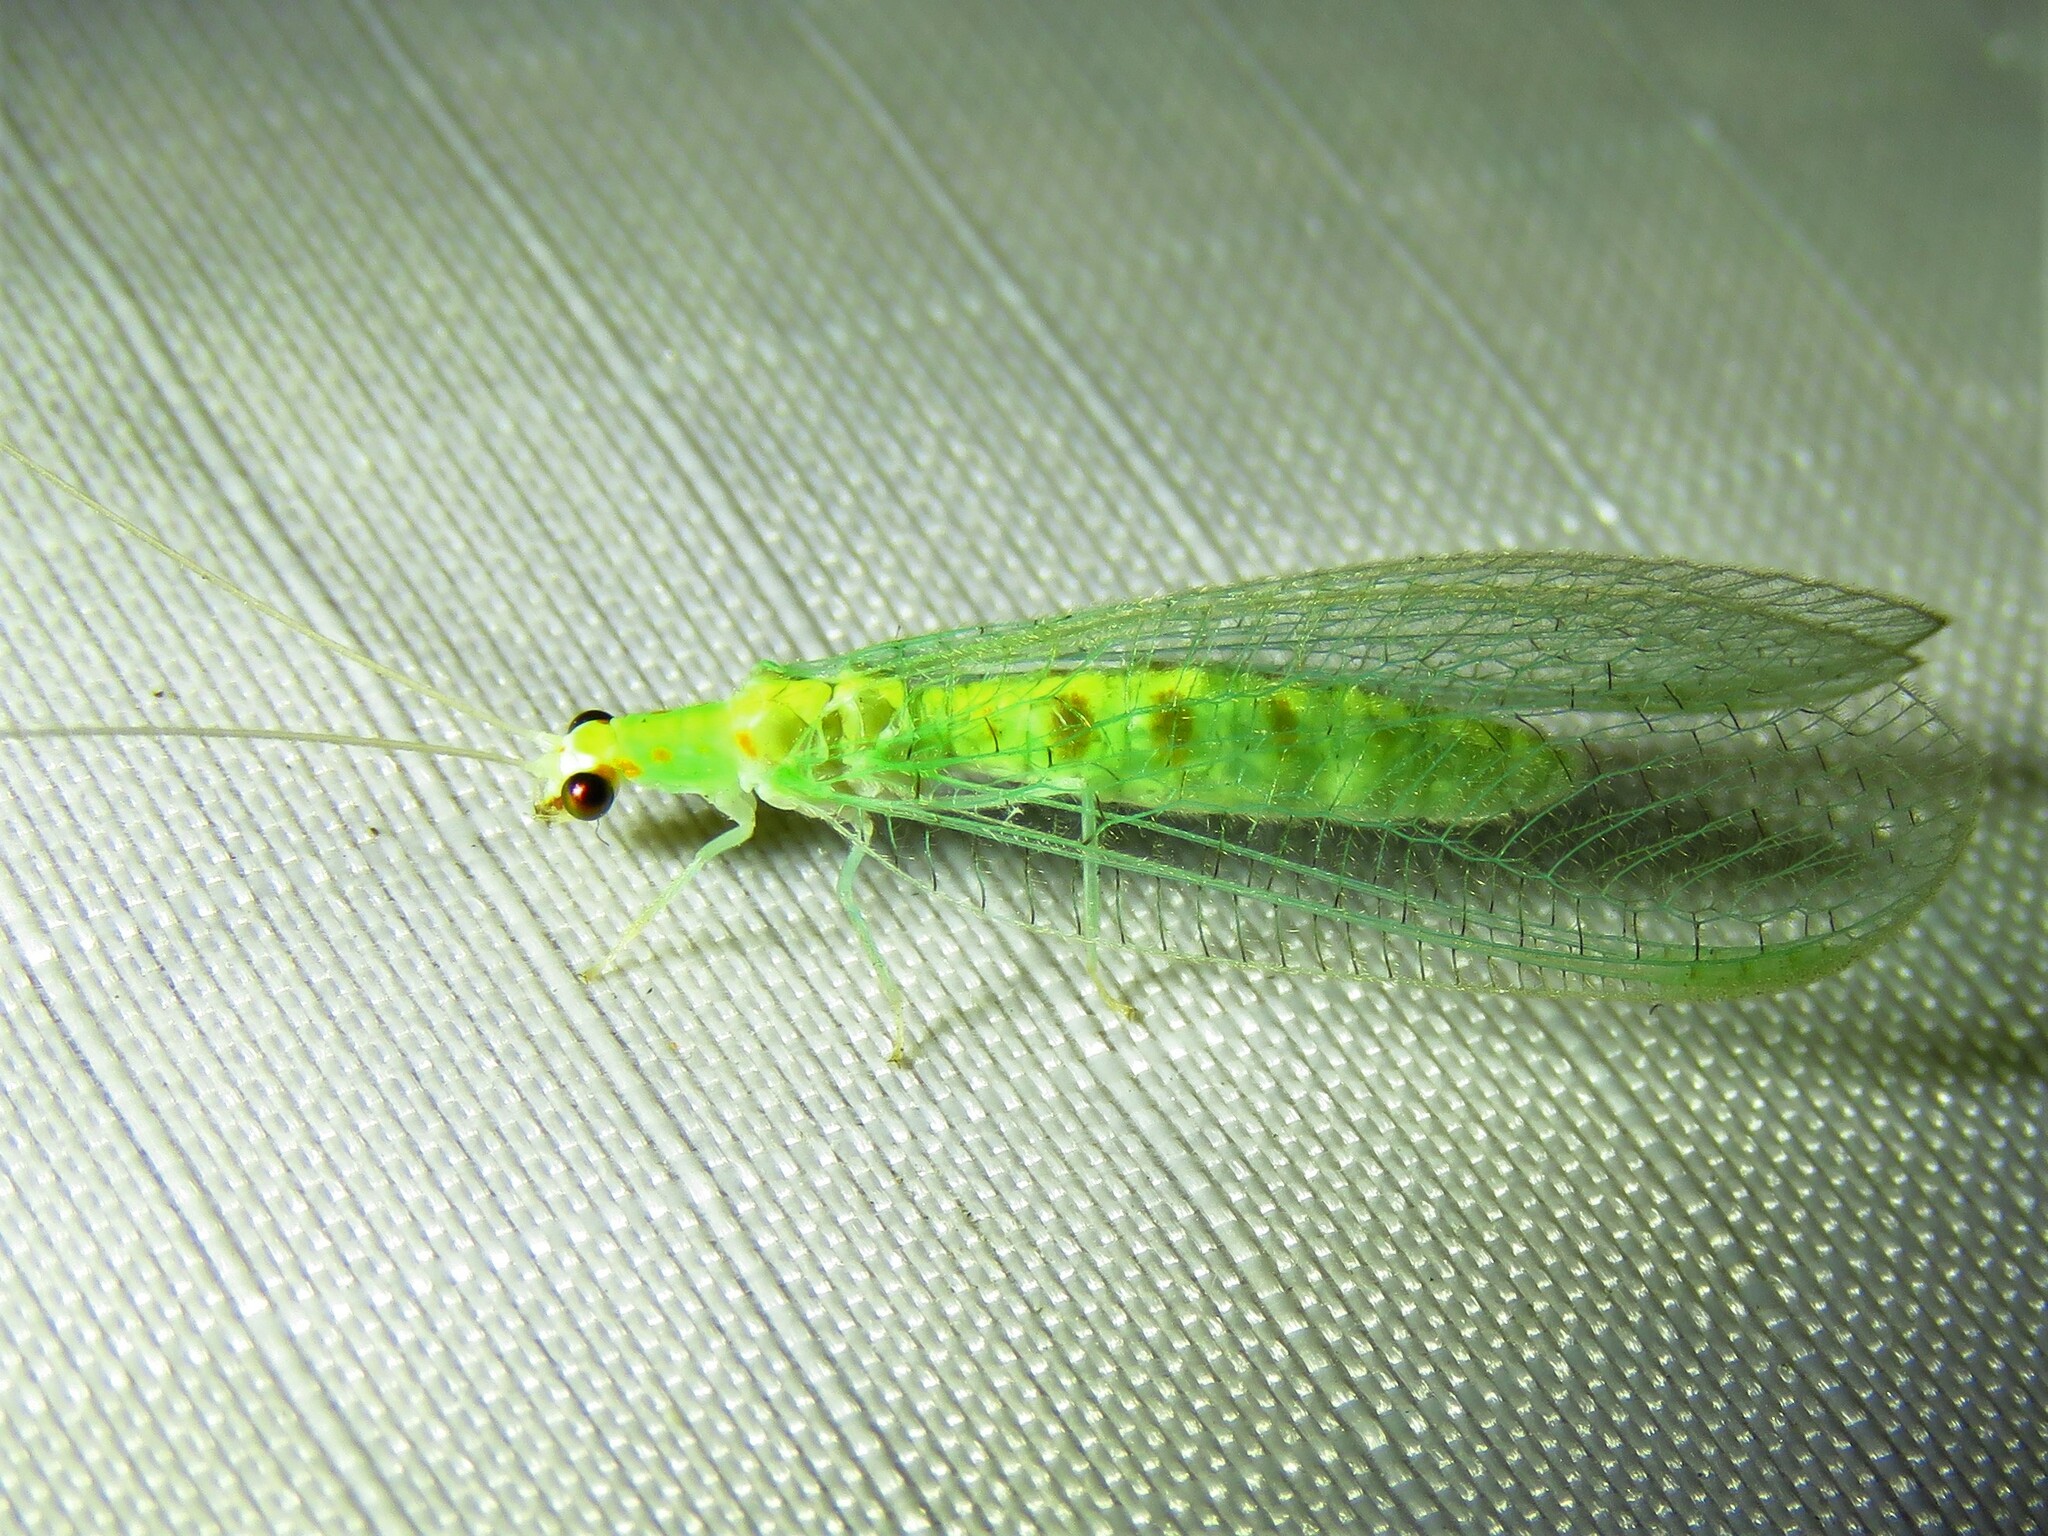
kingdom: Animalia
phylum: Arthropoda
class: Insecta
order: Neuroptera
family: Chrysopidae
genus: Chrysopa
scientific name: Chrysopa quadripunctata
